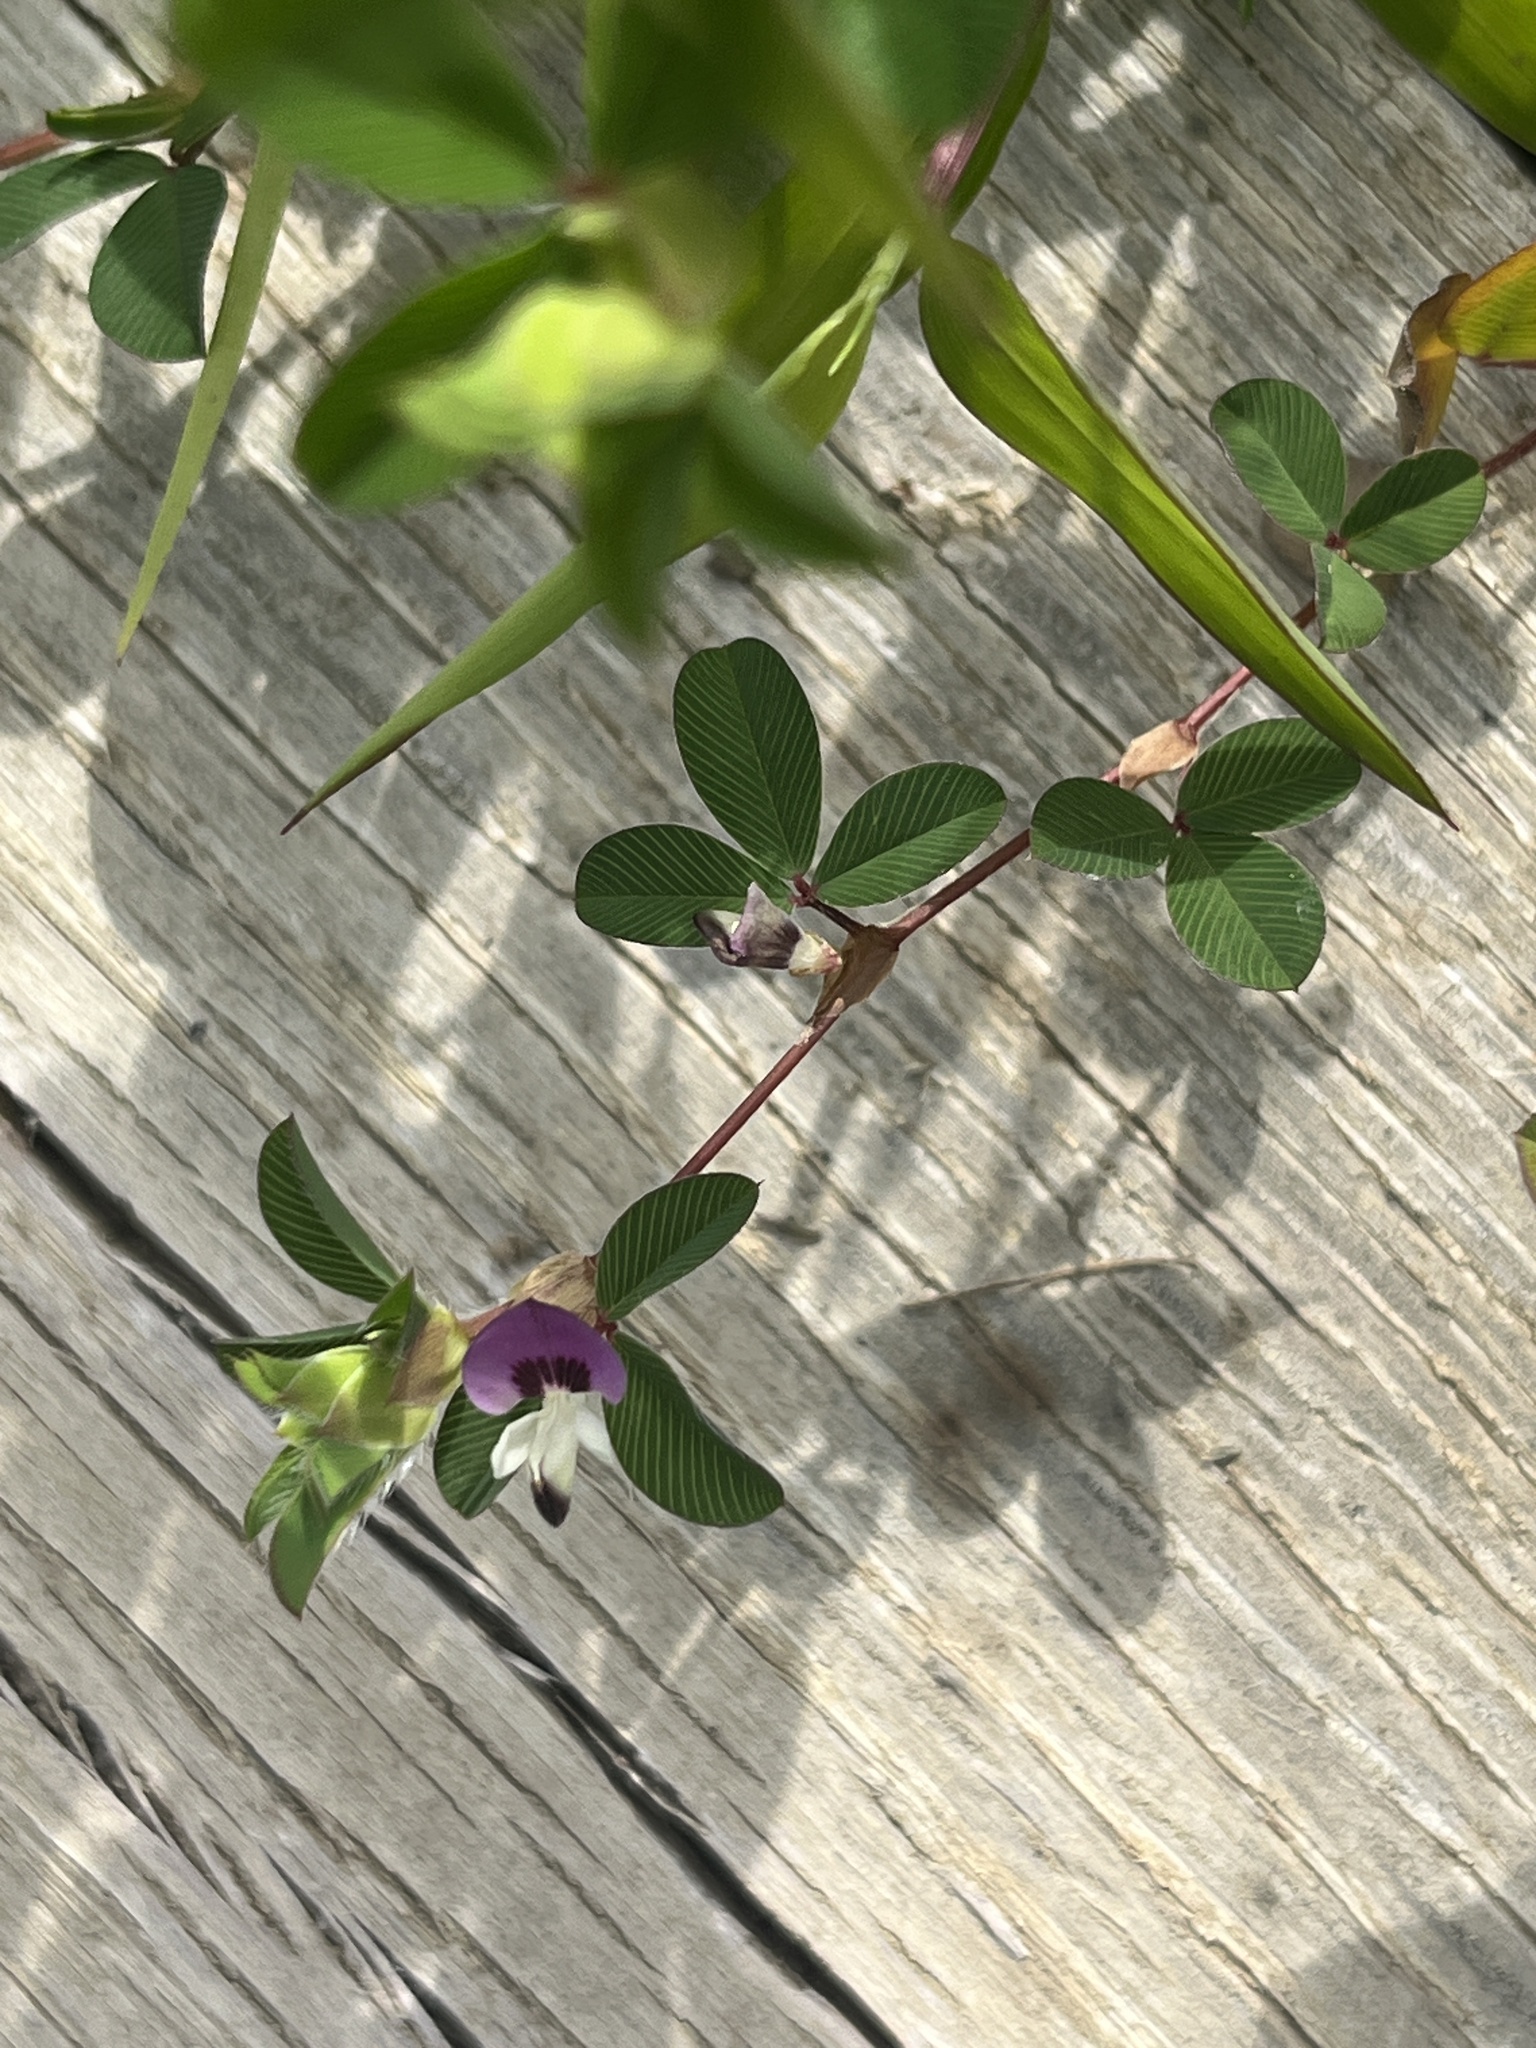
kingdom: Plantae
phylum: Tracheophyta
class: Magnoliopsida
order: Fabales
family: Fabaceae
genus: Kummerowia
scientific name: Kummerowia stipulacea
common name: Korean clover
